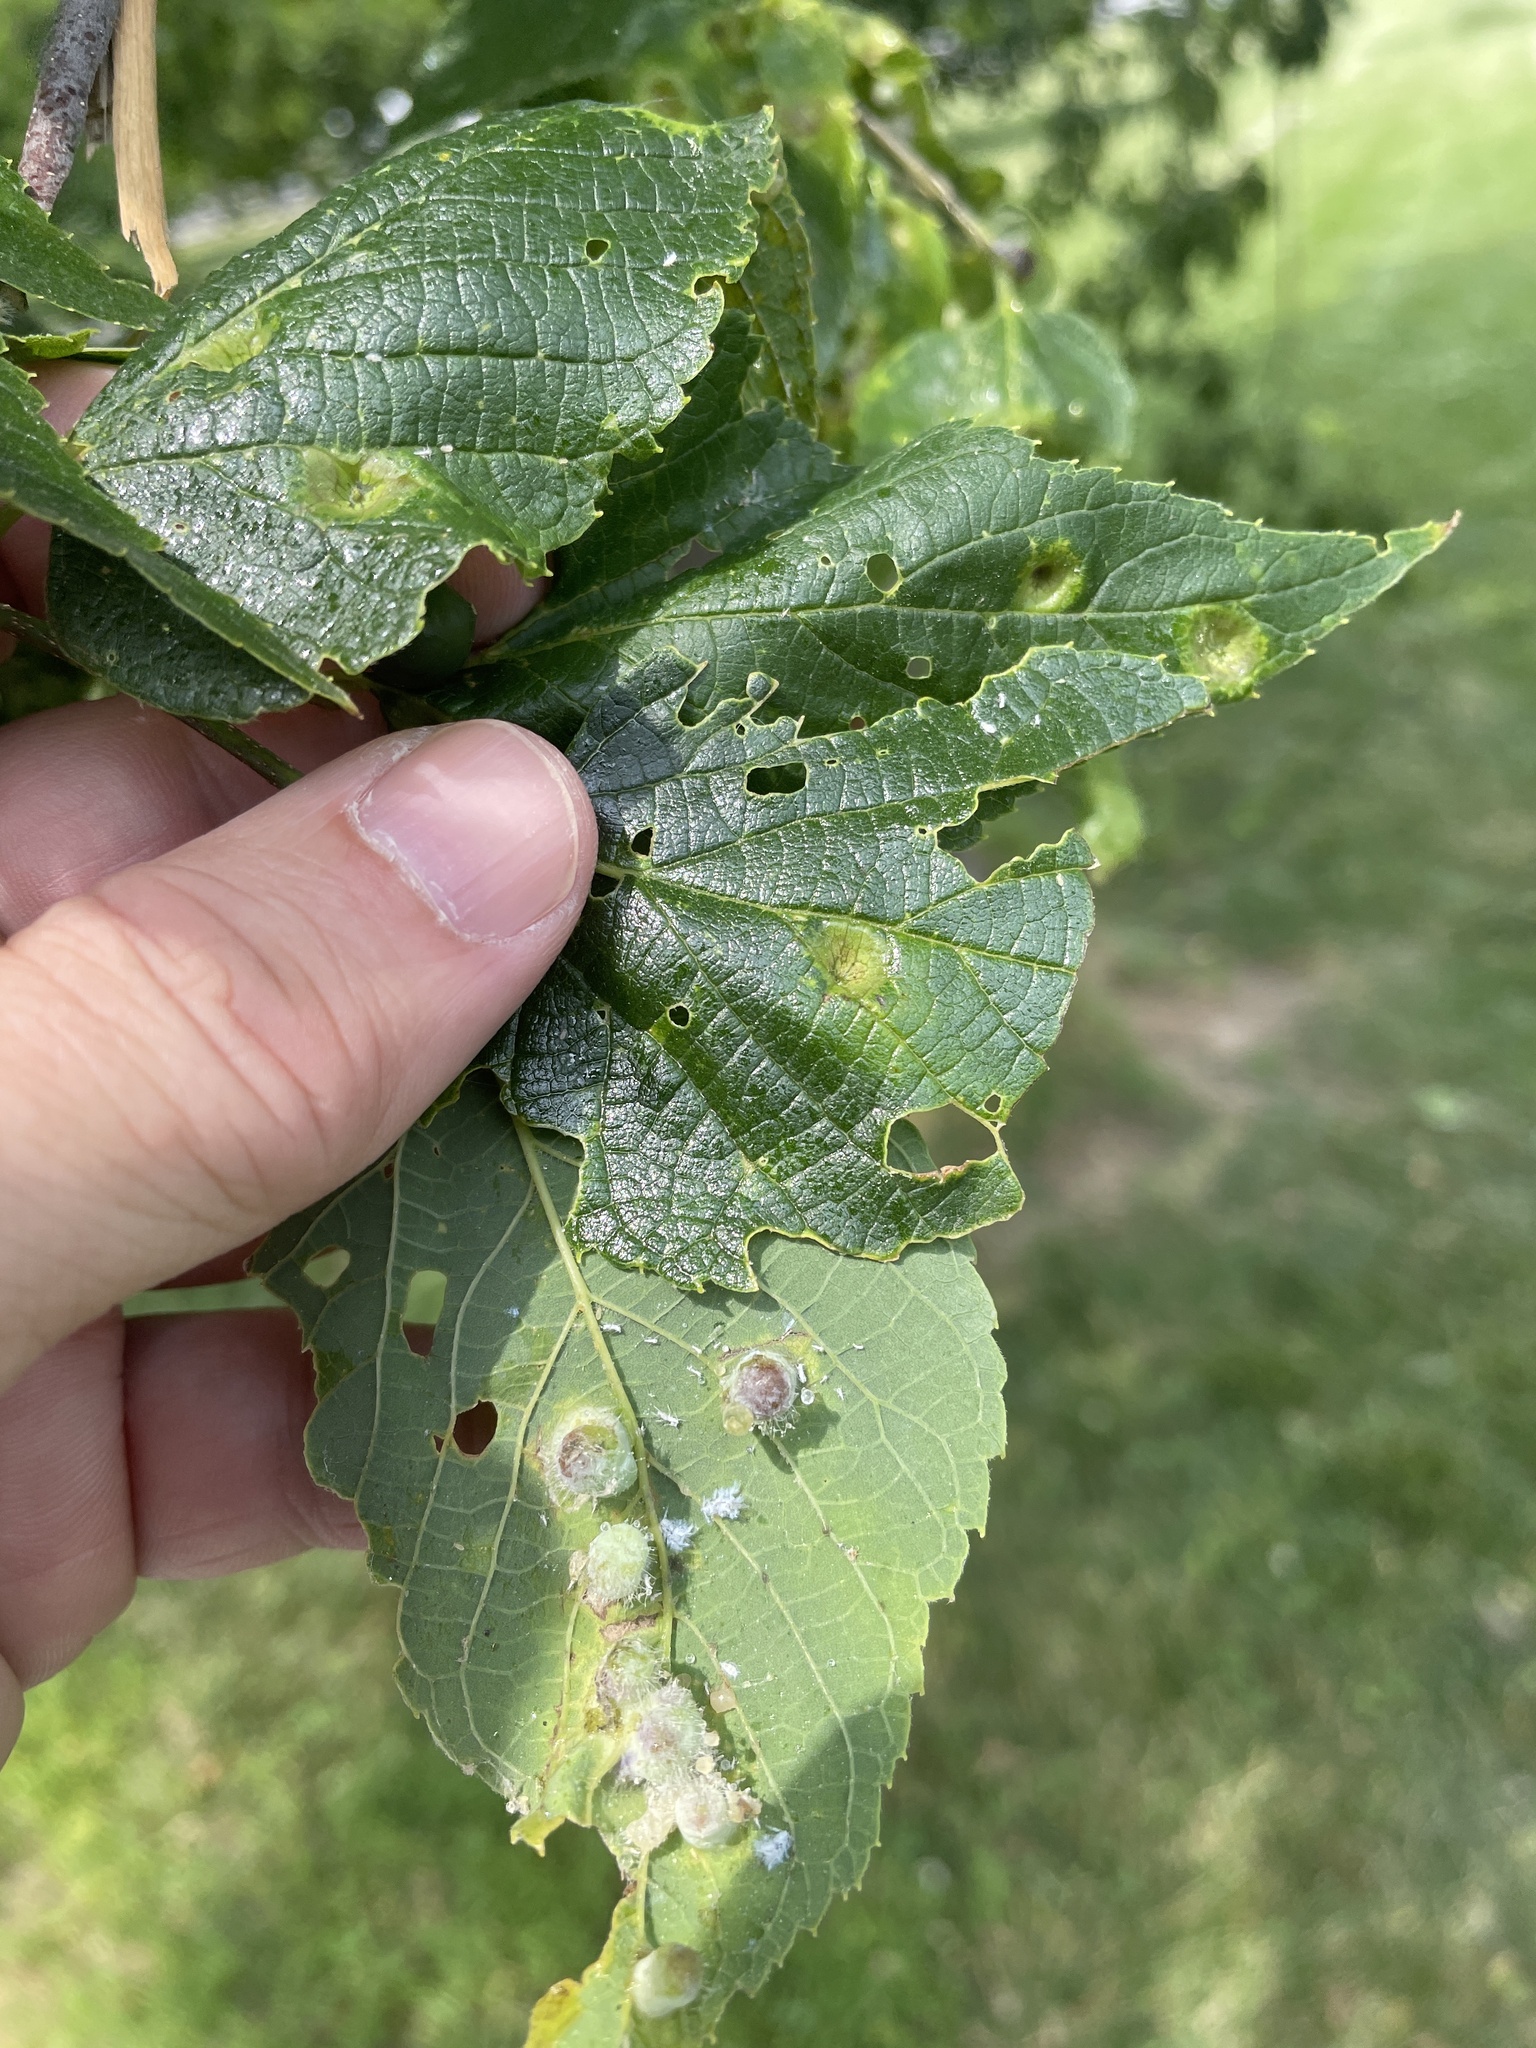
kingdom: Animalia
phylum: Arthropoda
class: Insecta
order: Hemiptera
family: Aphalaridae
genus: Pachypsylla
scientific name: Pachypsylla celtidismamma
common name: Hackberry nipplegall psyllid
